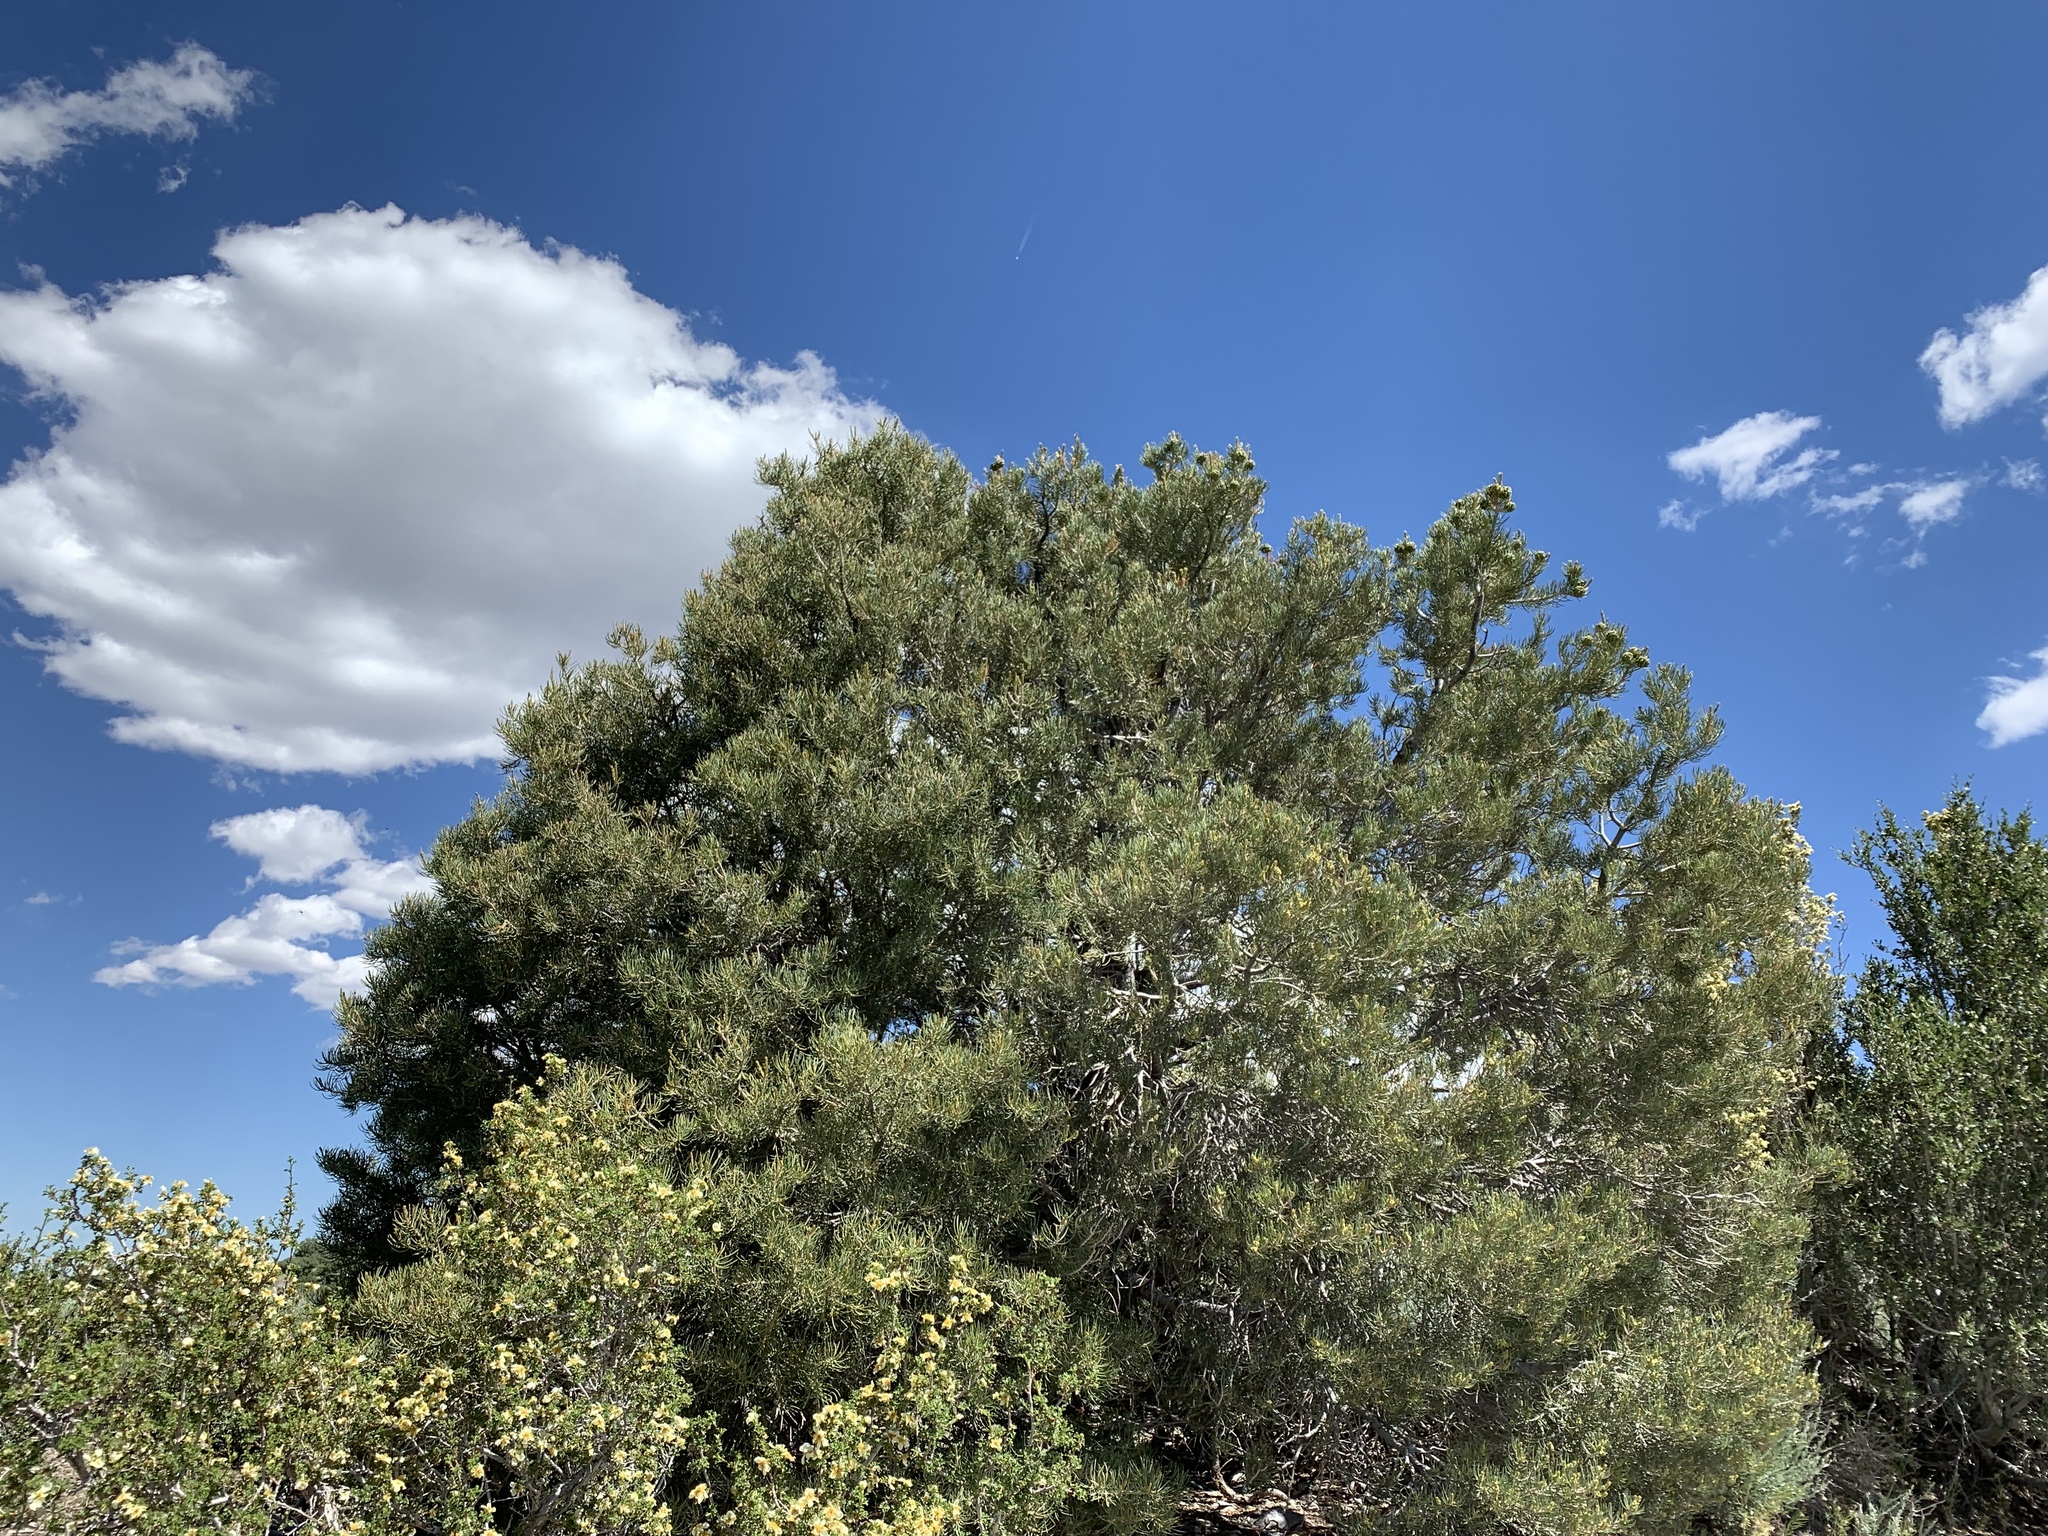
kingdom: Plantae
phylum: Tracheophyta
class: Pinopsida
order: Pinales
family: Pinaceae
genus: Pinus
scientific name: Pinus monophylla
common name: One-leaved nut pine
